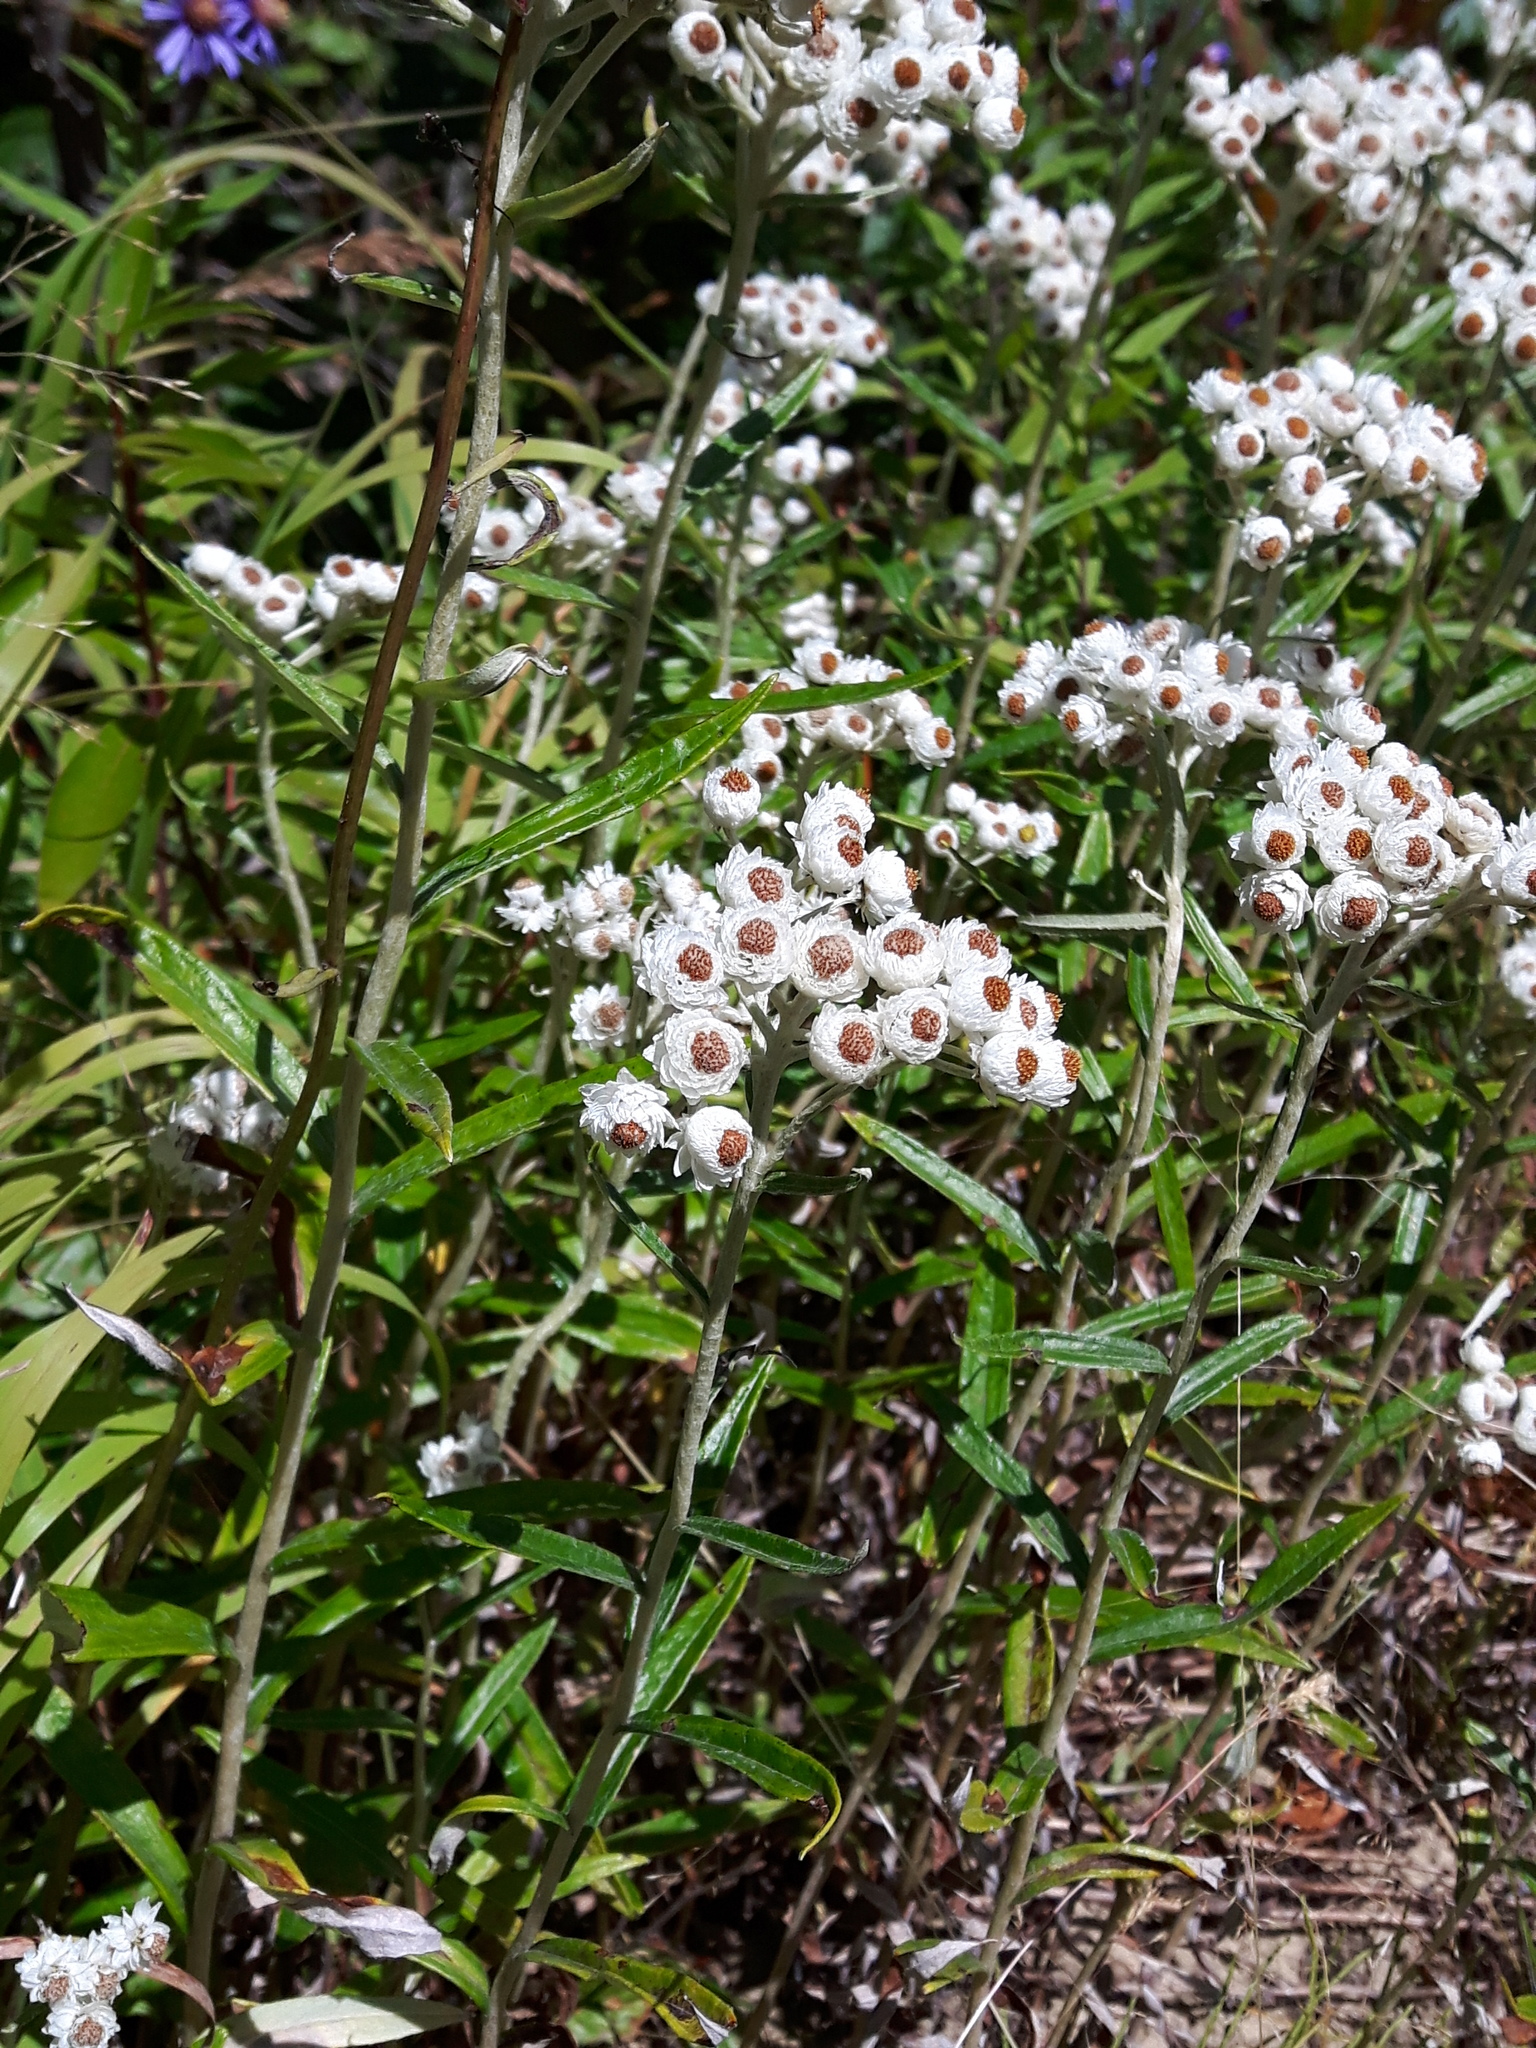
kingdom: Plantae
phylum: Tracheophyta
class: Magnoliopsida
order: Asterales
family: Asteraceae
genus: Anaphalis
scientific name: Anaphalis margaritacea
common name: Pearly everlasting
